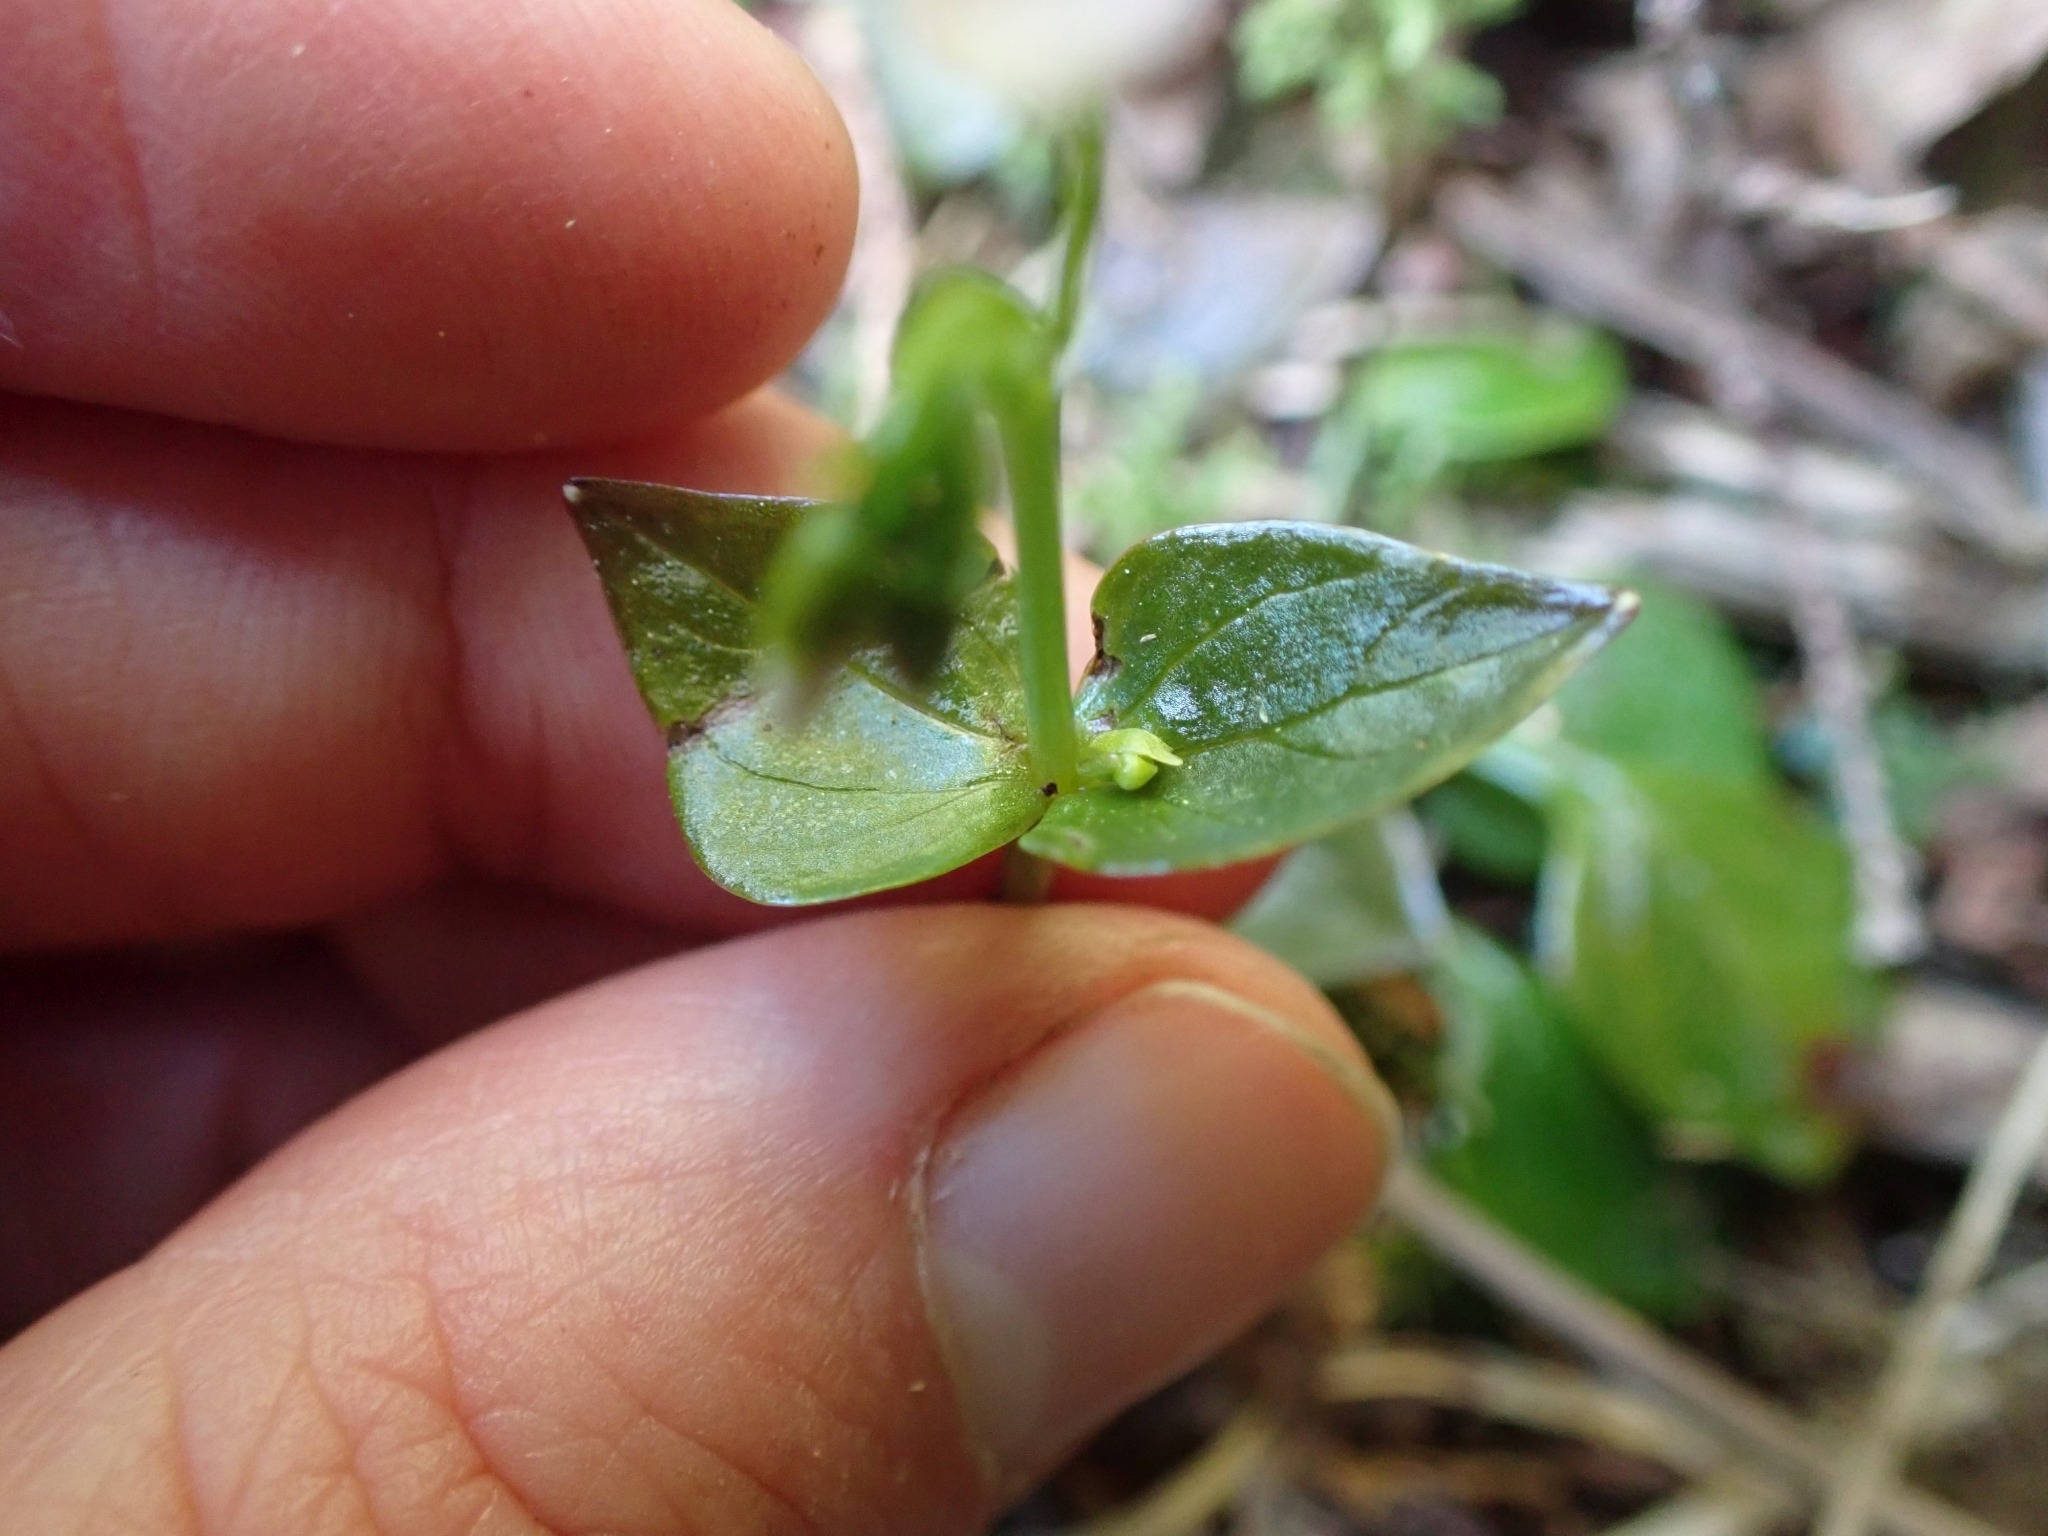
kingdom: Plantae
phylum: Tracheophyta
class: Magnoliopsida
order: Caryophyllales
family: Montiaceae
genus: Claytonia
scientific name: Claytonia sibirica
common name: Pink purslane
